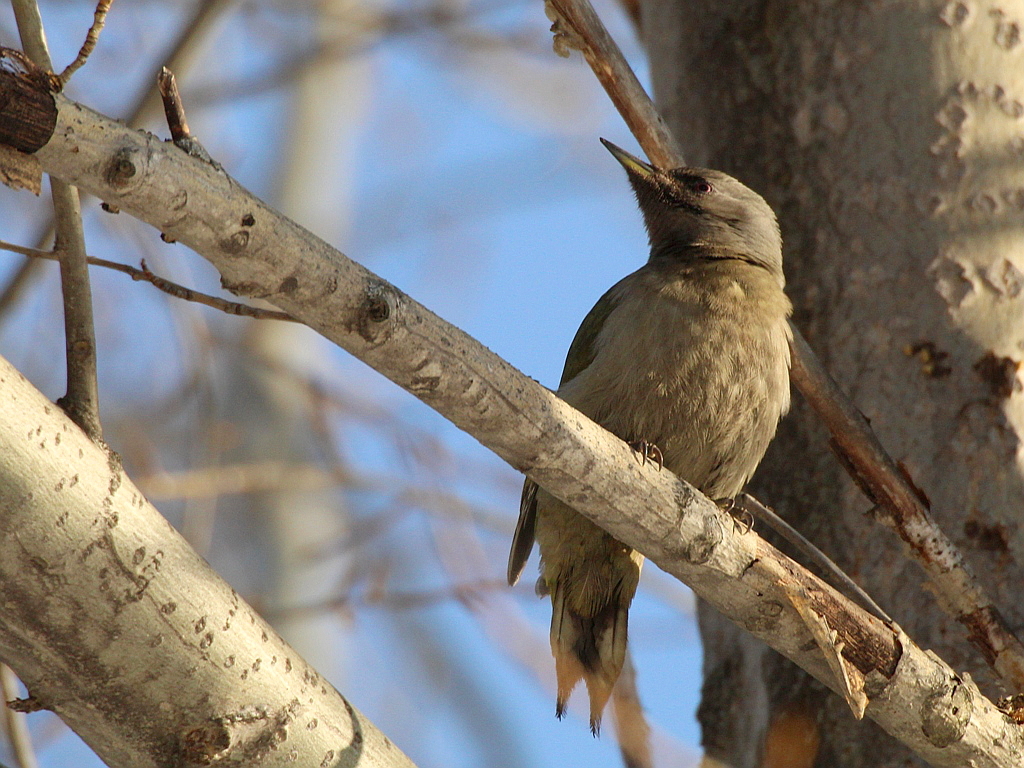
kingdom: Animalia
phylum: Chordata
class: Aves
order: Piciformes
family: Picidae
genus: Picus
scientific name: Picus canus
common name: Grey-headed woodpecker
